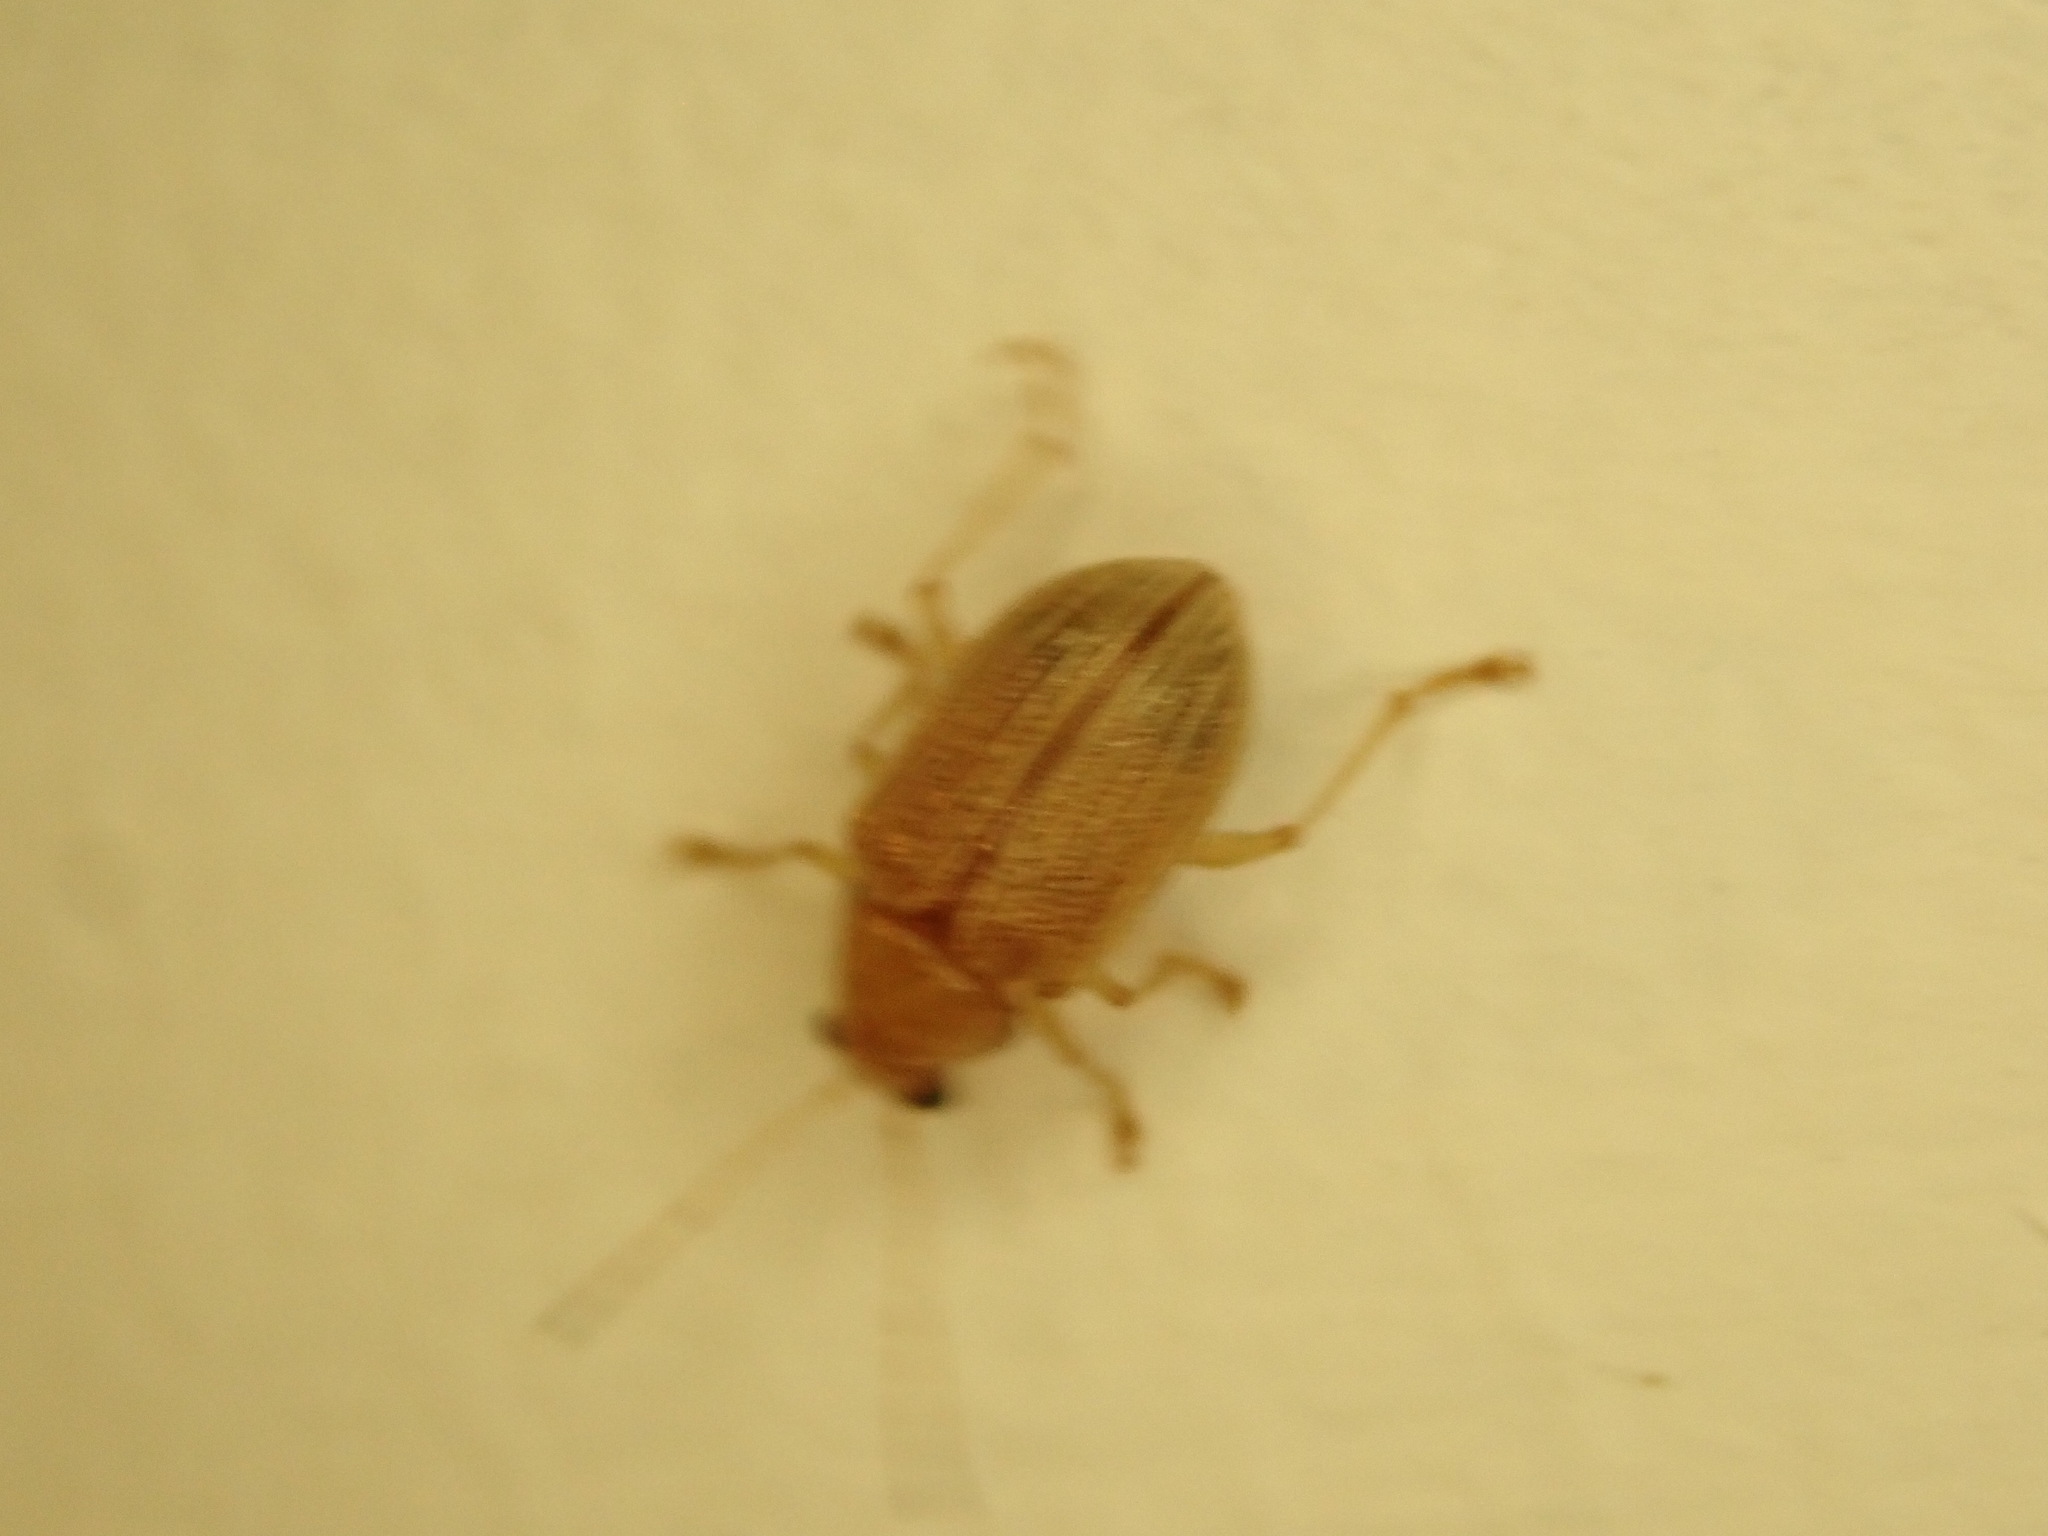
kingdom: Animalia
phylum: Arthropoda
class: Insecta
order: Coleoptera
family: Chrysomelidae
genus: Colaspis
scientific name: Colaspis brunnea
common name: Grape colaspis
